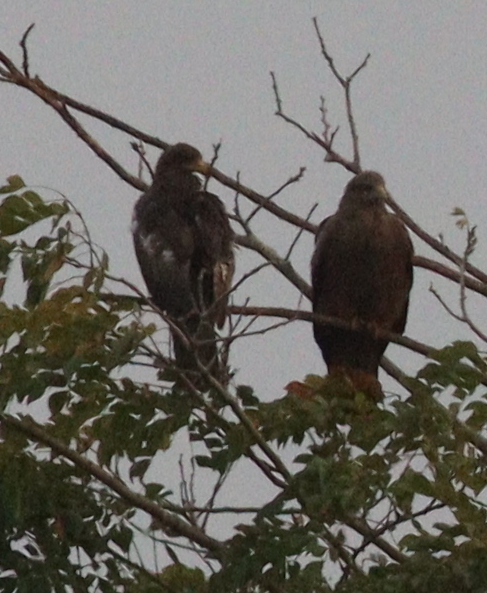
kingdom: Animalia
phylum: Chordata
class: Aves
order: Accipitriformes
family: Accipitridae
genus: Milvus
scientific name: Milvus migrans
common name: Black kite
